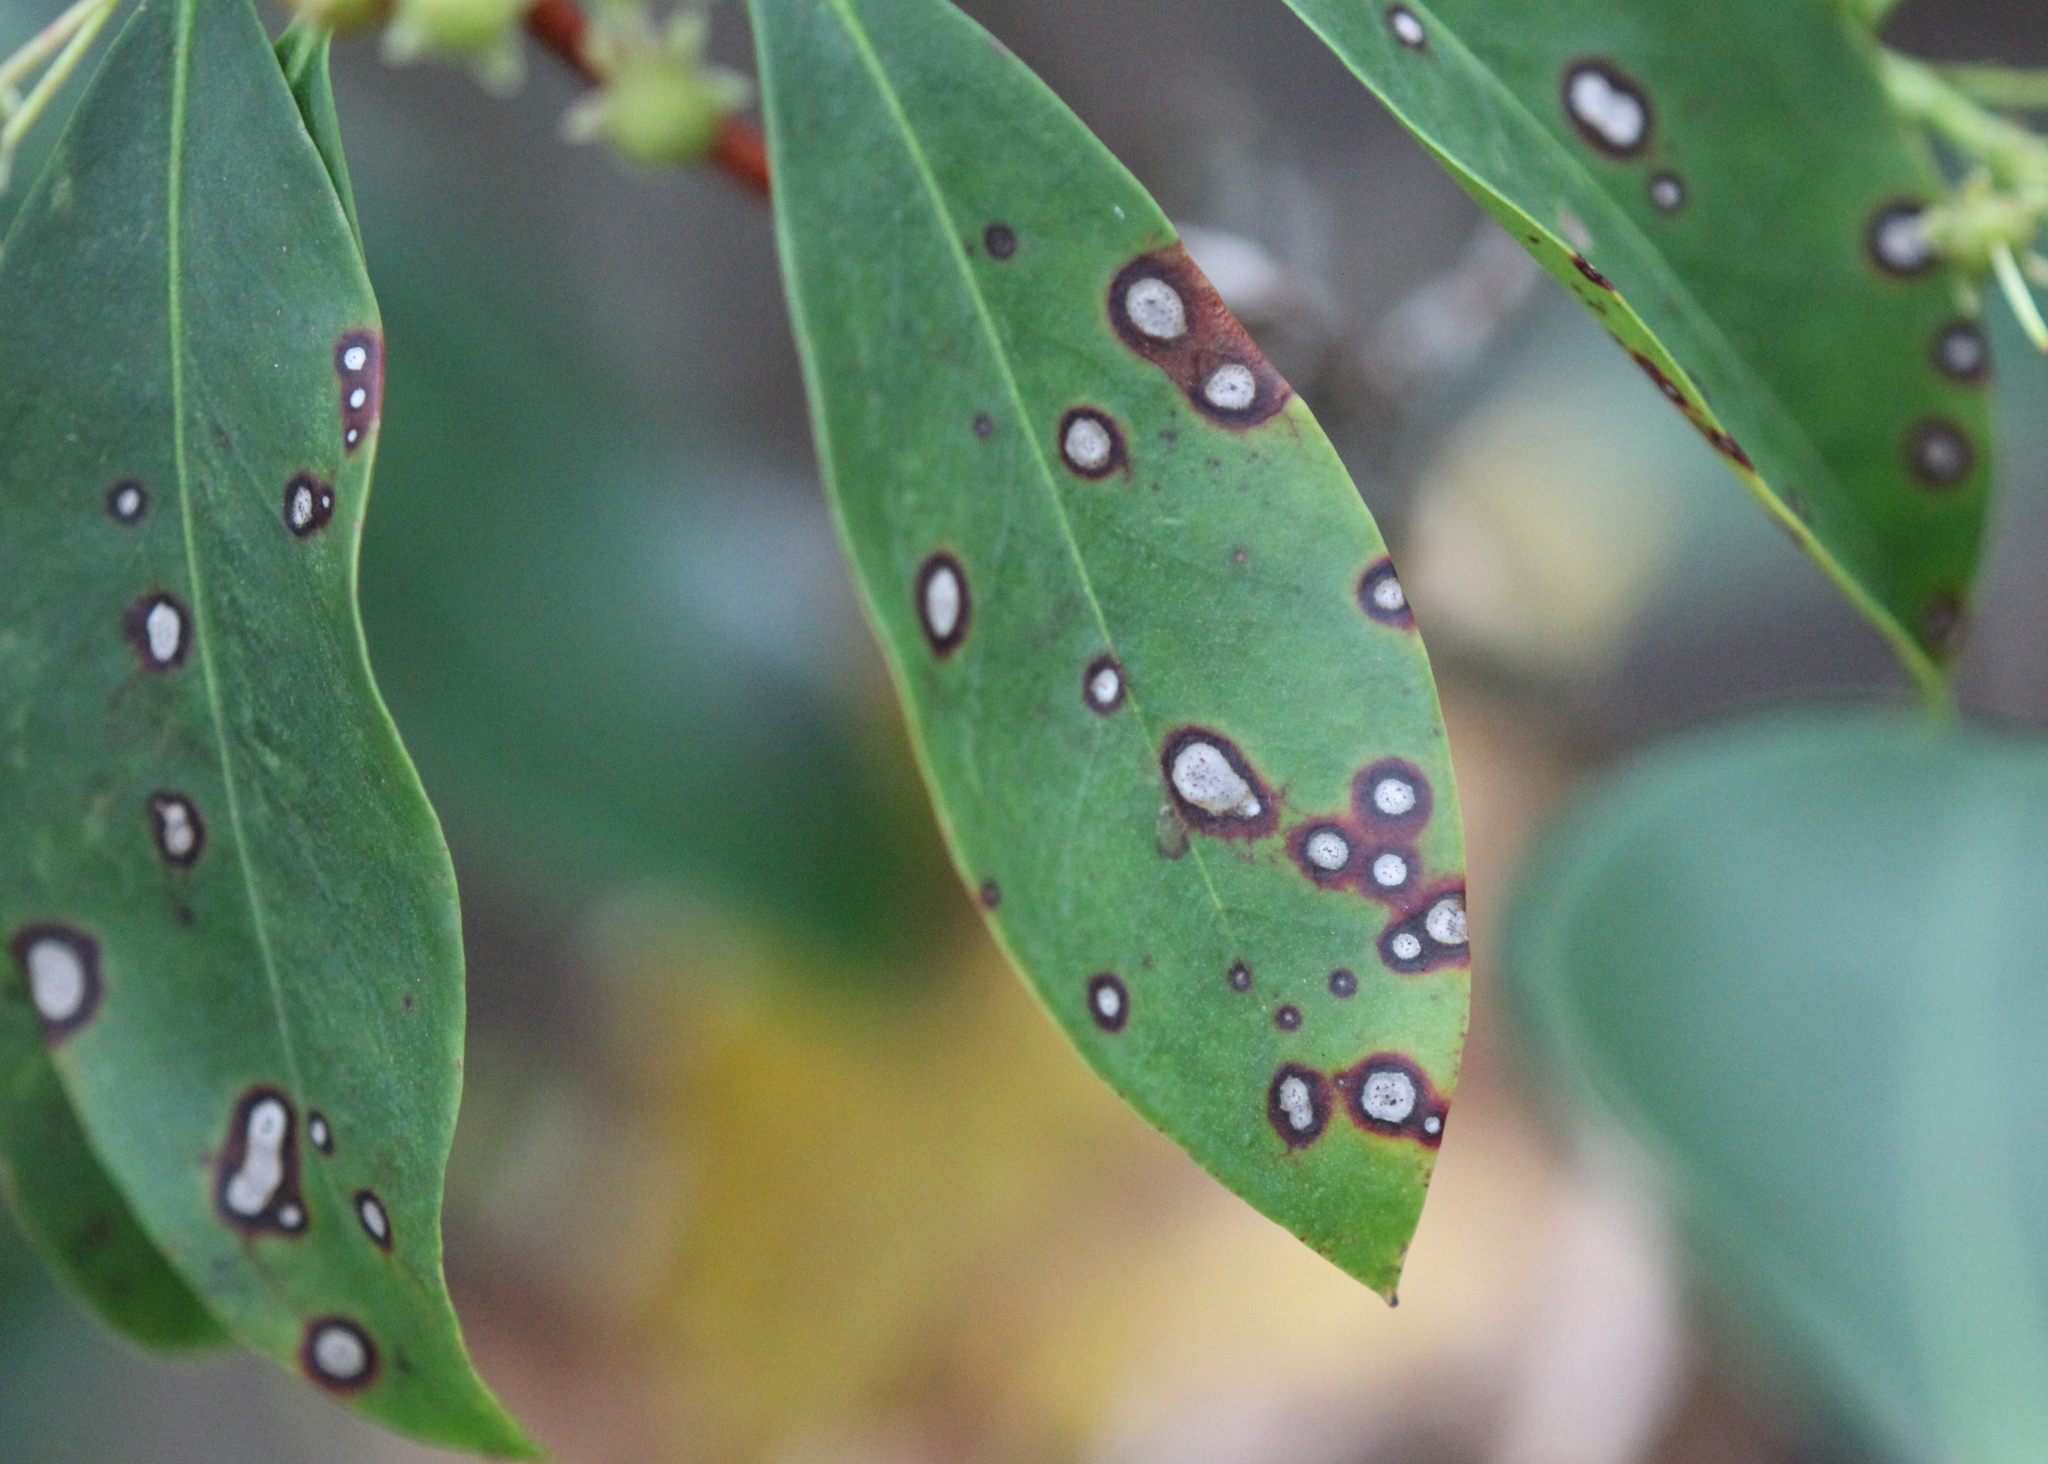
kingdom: Plantae
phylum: Tracheophyta
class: Magnoliopsida
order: Ericales
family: Ericaceae
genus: Kalmia
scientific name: Kalmia latifolia
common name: Mountain-laurel
